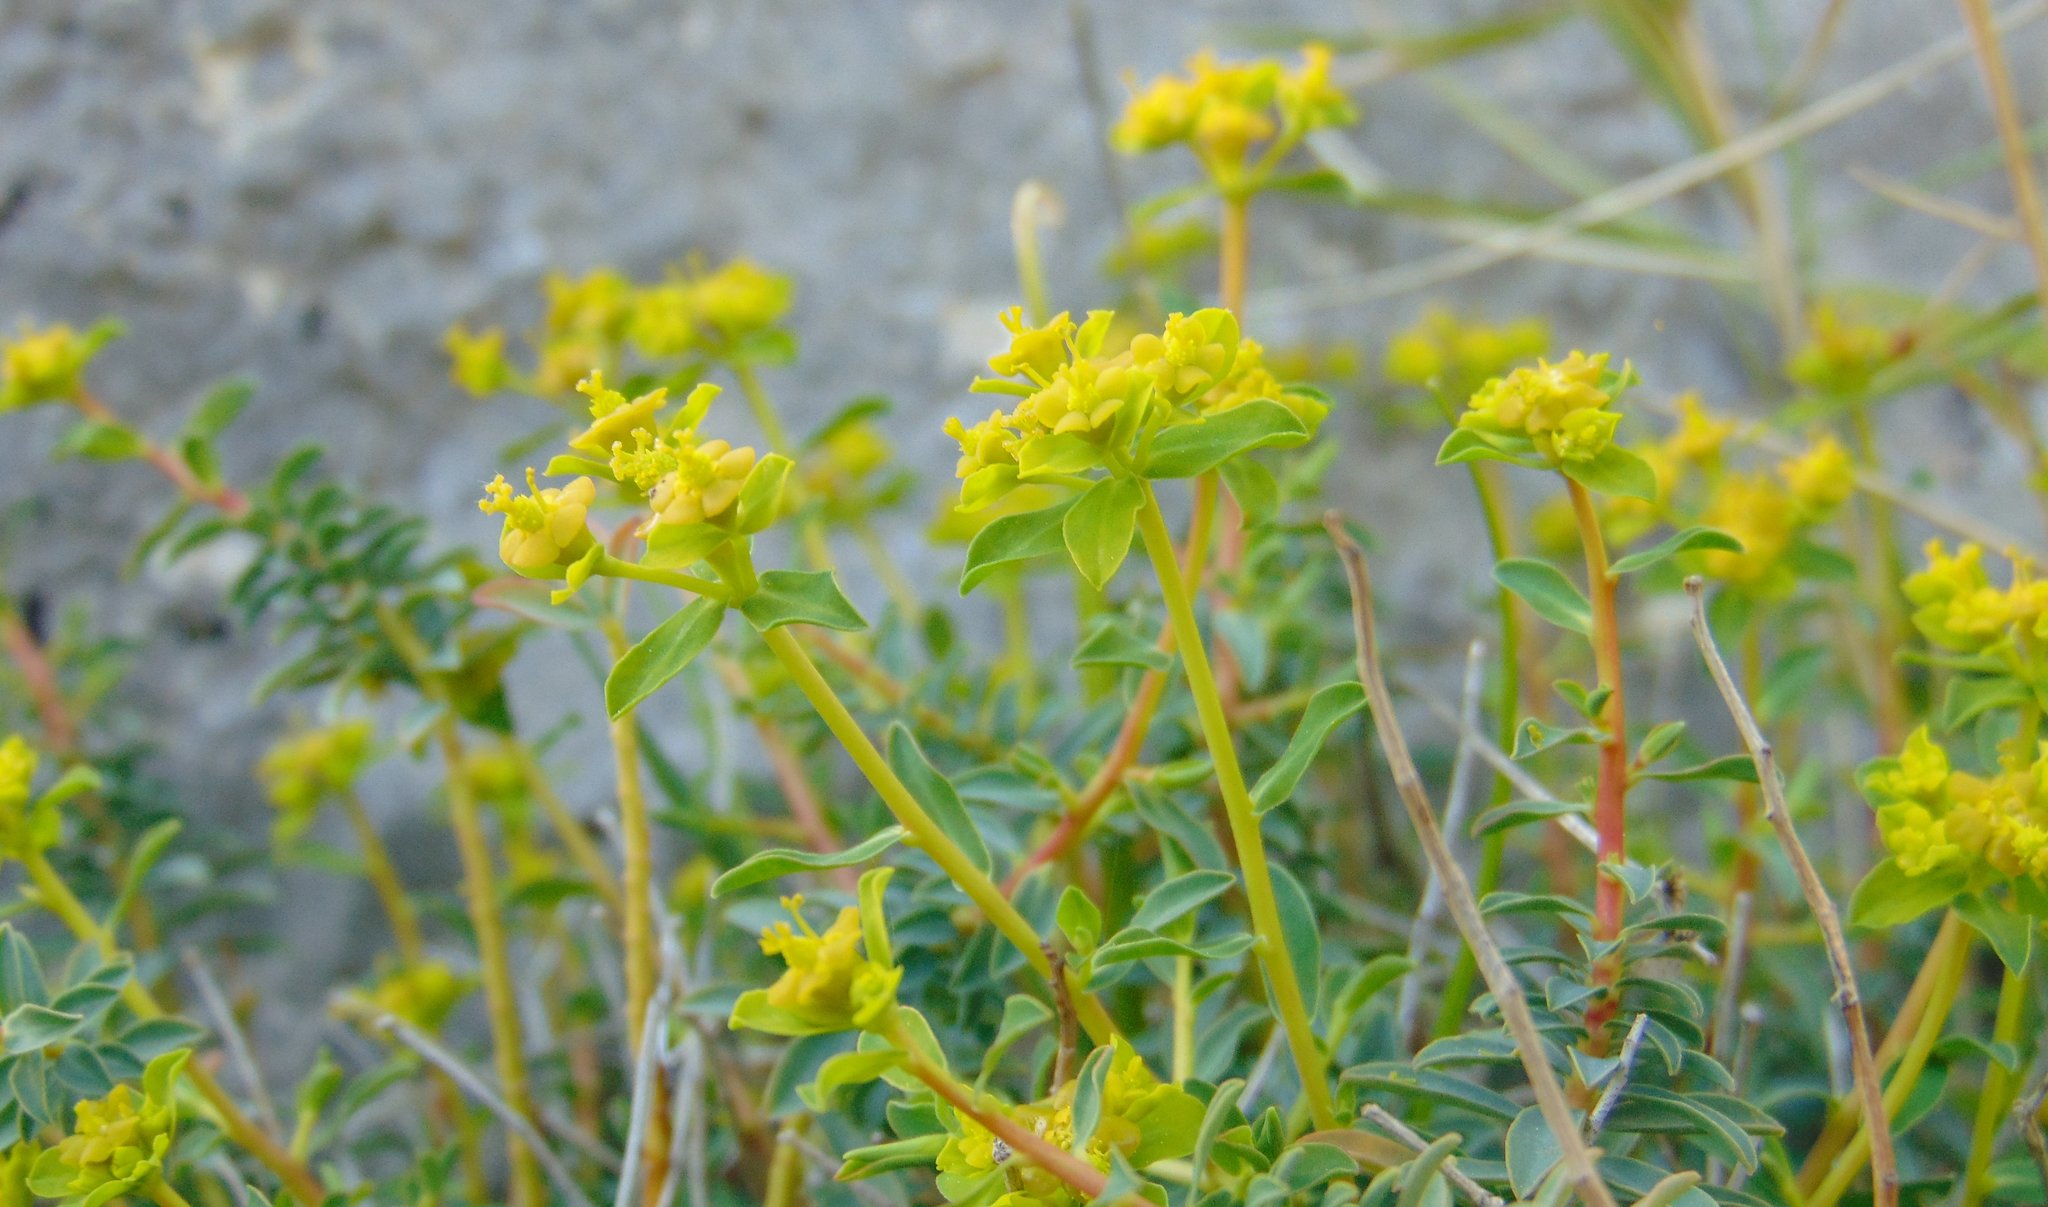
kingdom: Plantae
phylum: Tracheophyta
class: Magnoliopsida
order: Malpighiales
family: Euphorbiaceae
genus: Euphorbia
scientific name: Euphorbia spinosa
